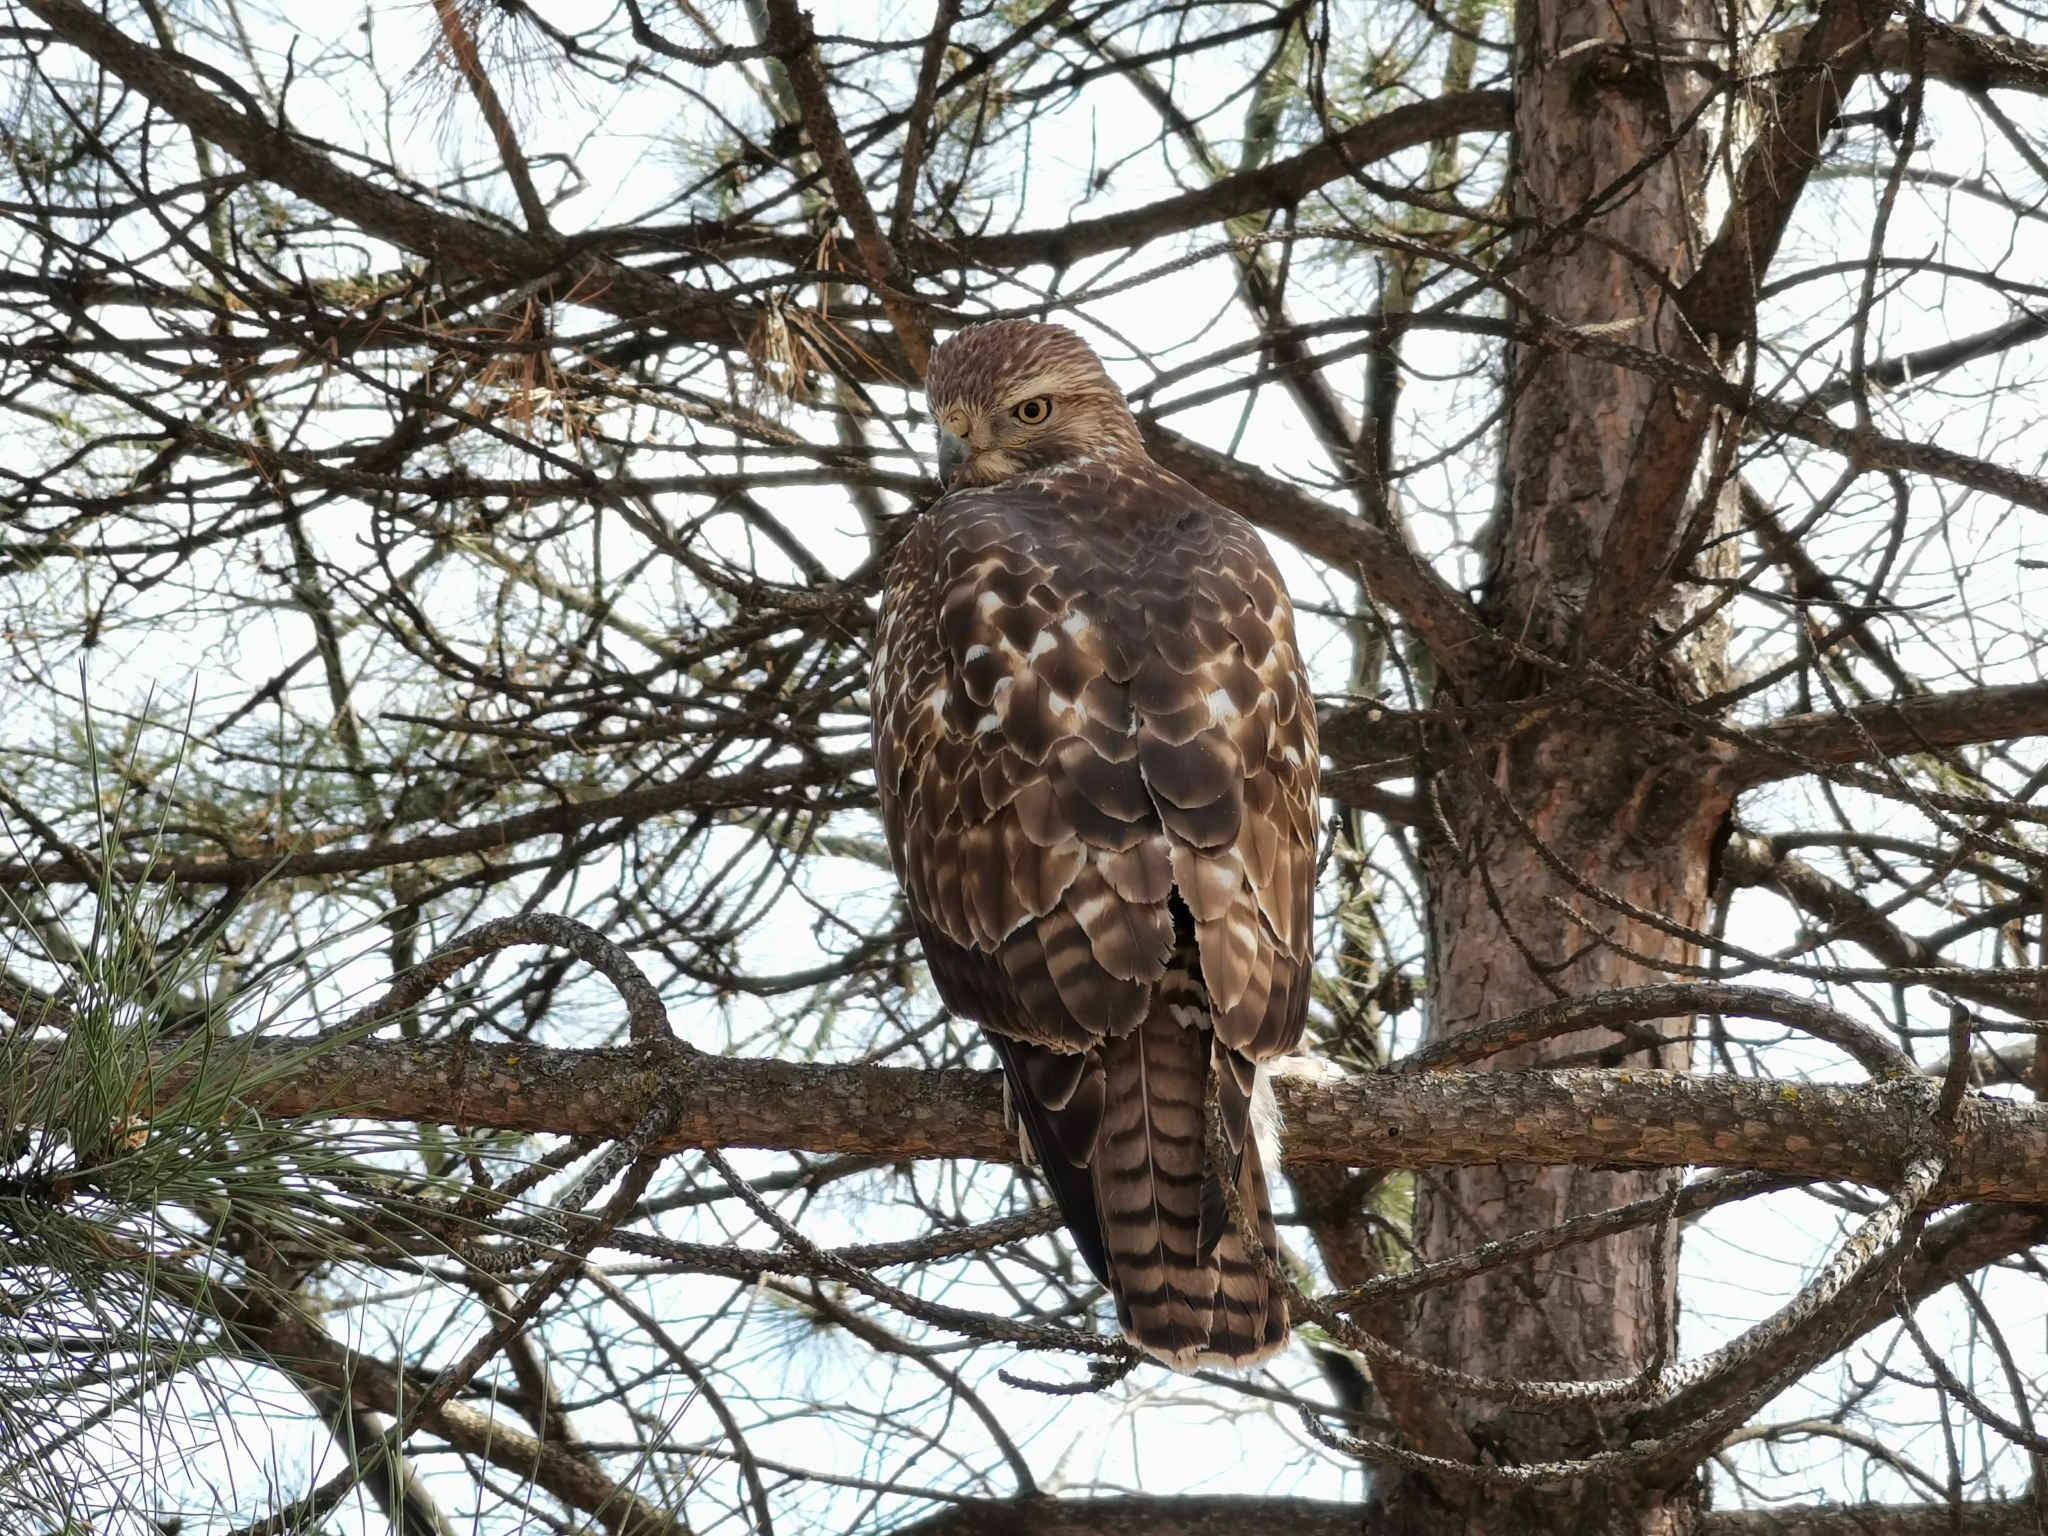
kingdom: Animalia
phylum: Chordata
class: Aves
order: Accipitriformes
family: Accipitridae
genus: Buteo
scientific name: Buteo jamaicensis
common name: Red-tailed hawk
